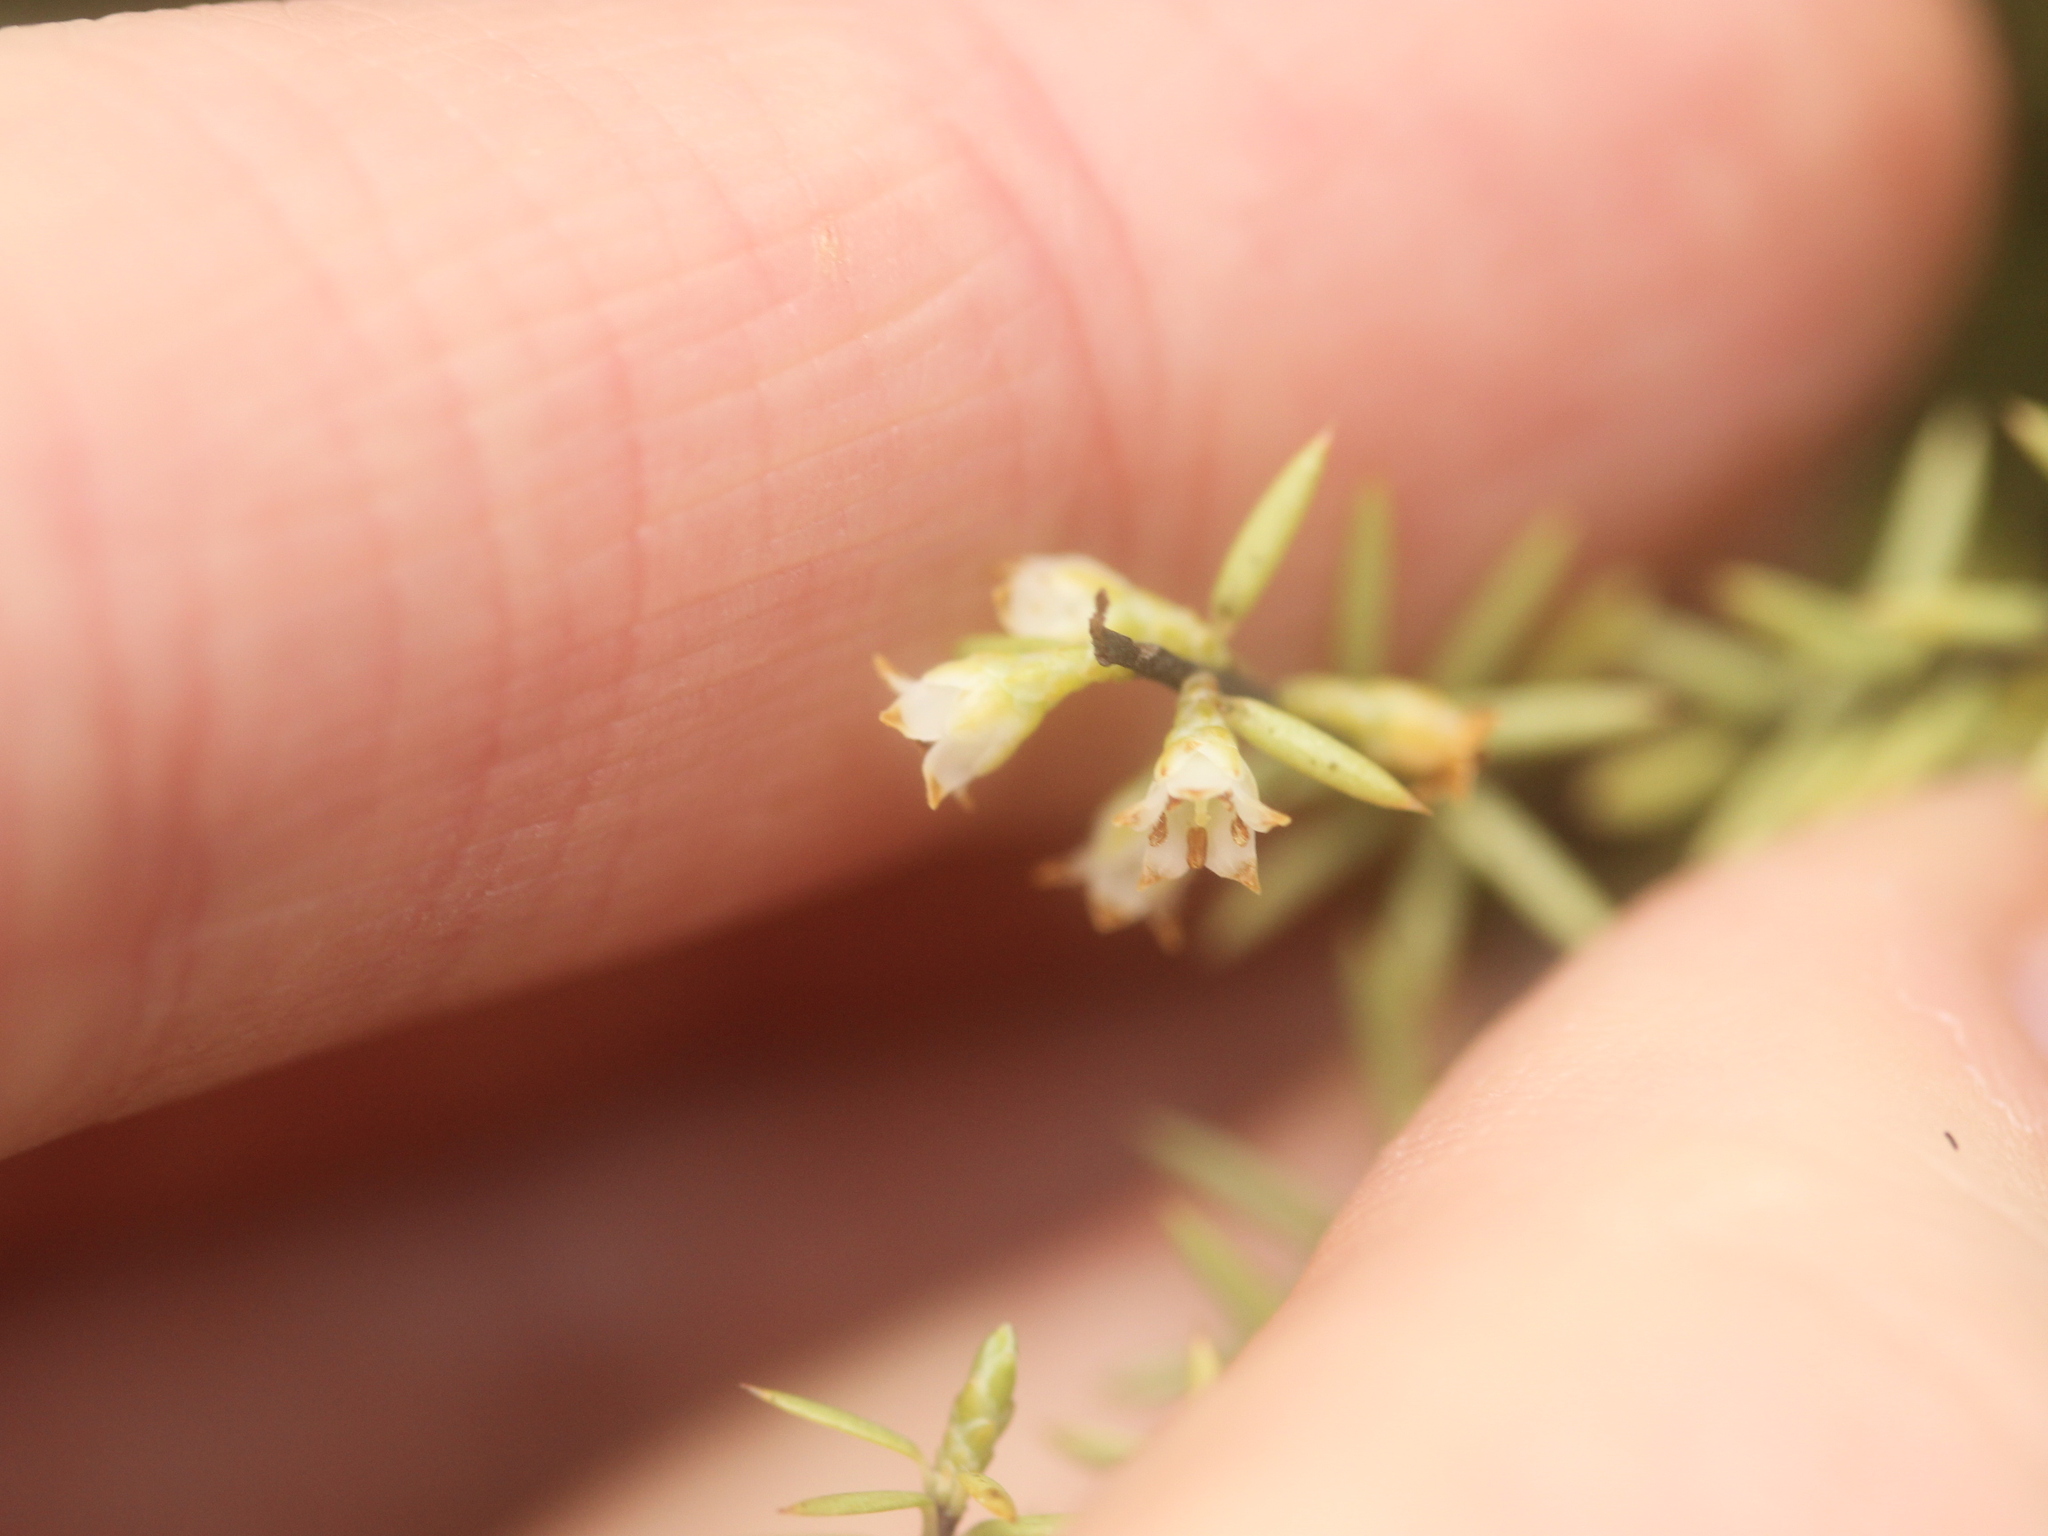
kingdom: Plantae
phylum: Tracheophyta
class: Magnoliopsida
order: Ericales
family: Ericaceae
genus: Leptecophylla
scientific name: Leptecophylla juniperina
